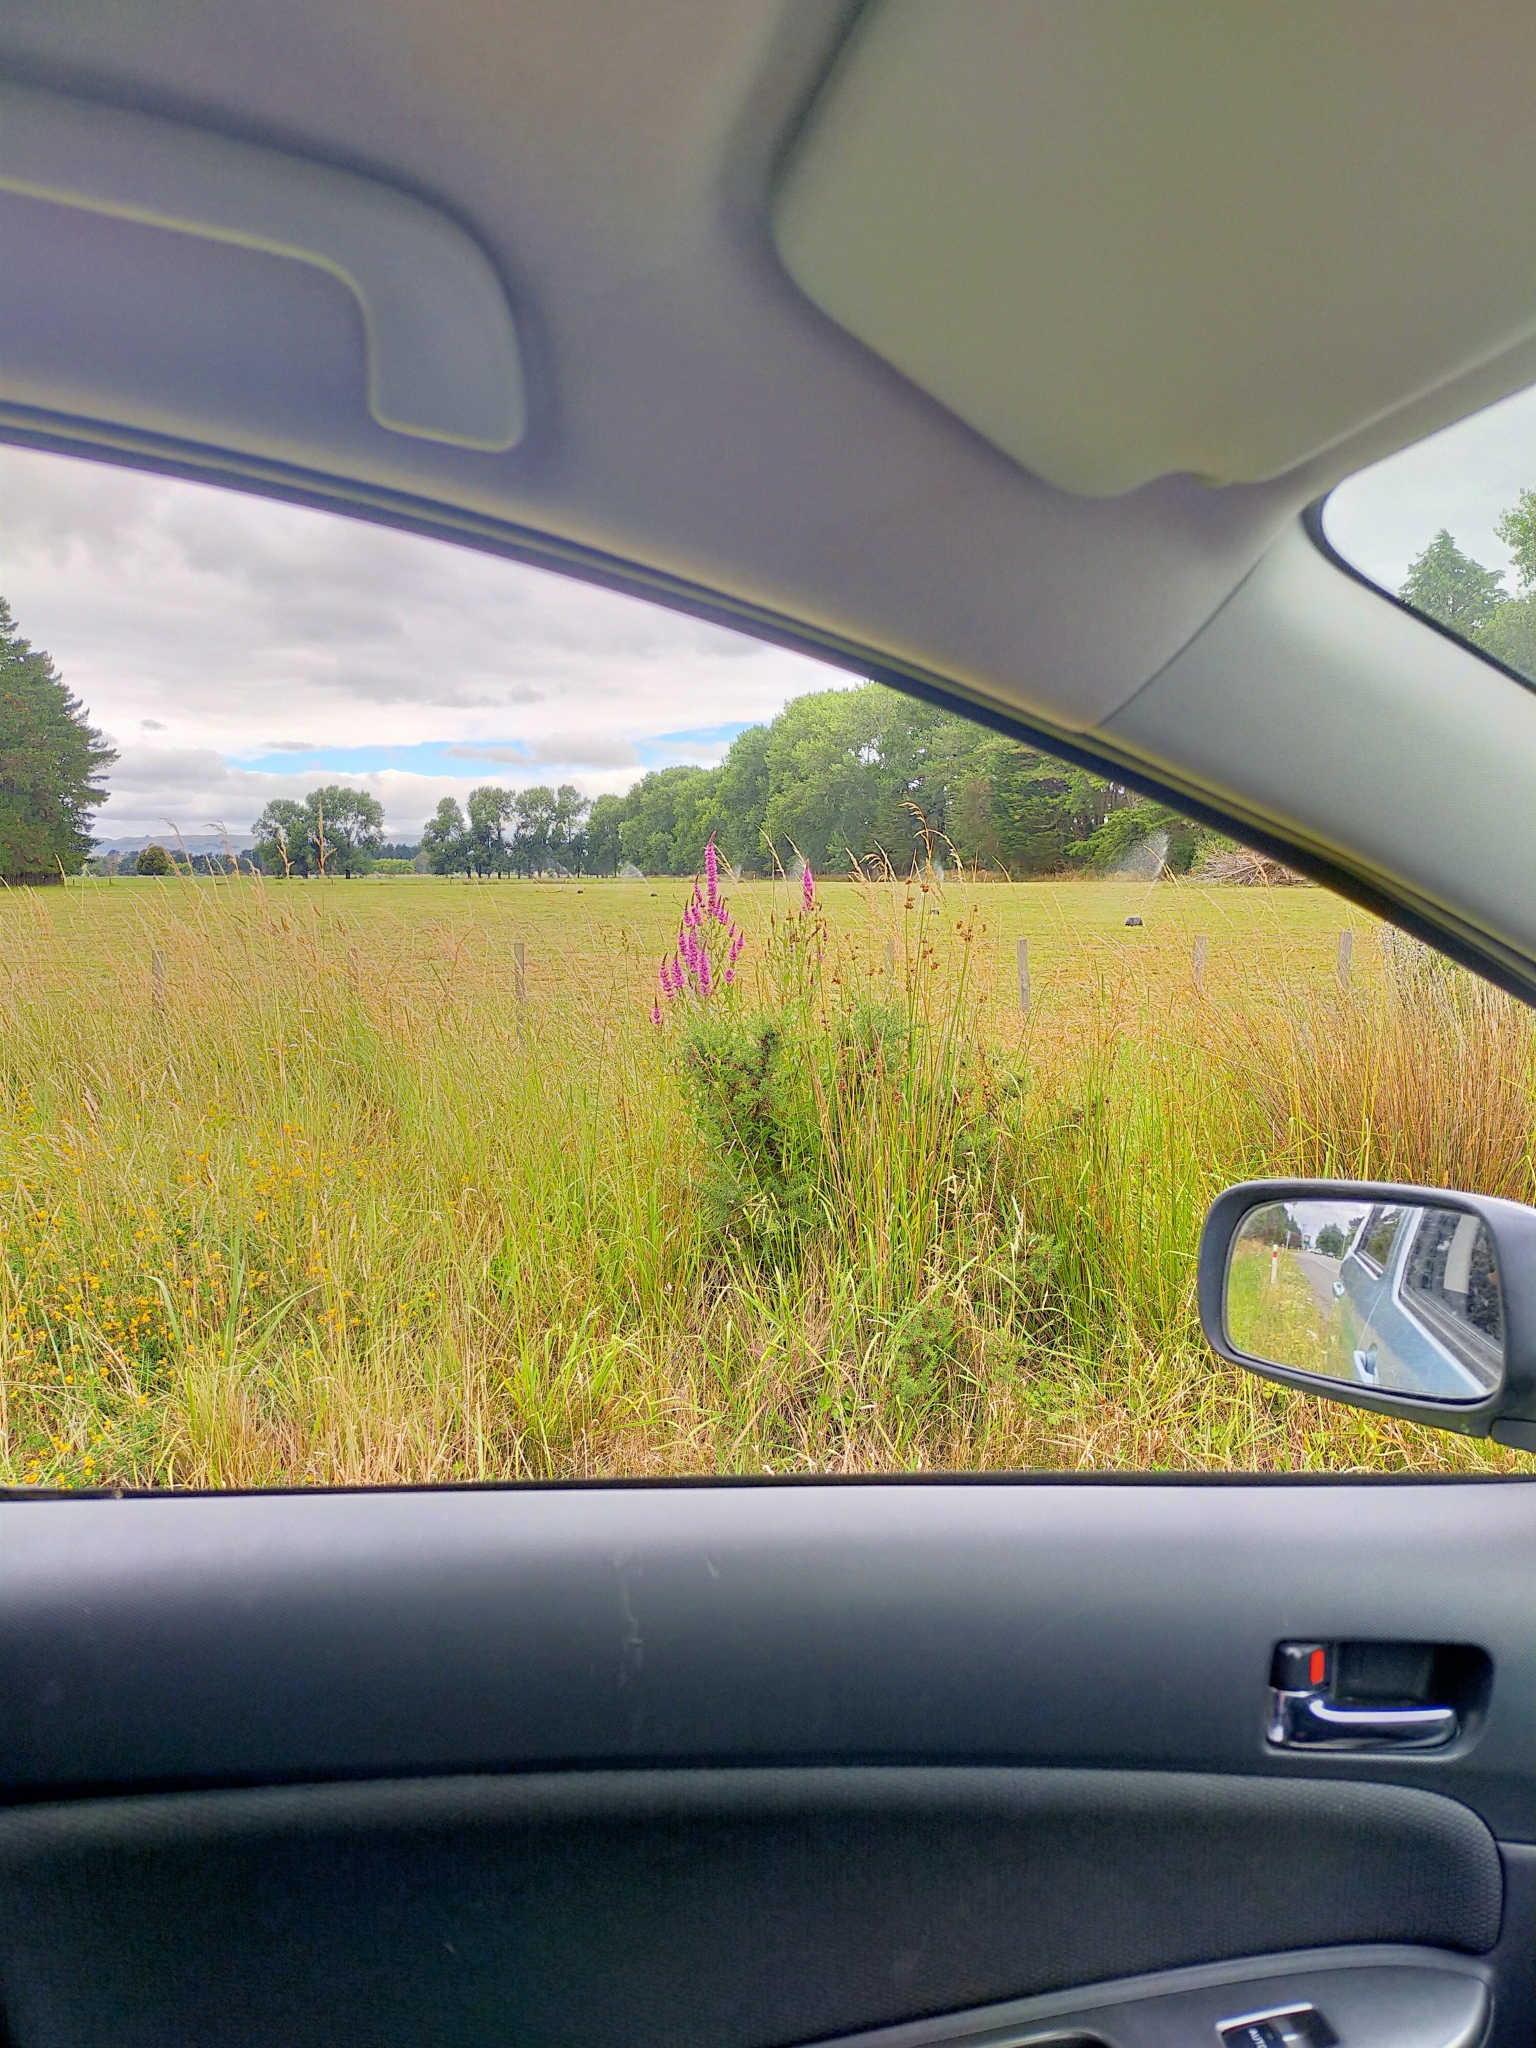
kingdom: Plantae
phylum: Tracheophyta
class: Magnoliopsida
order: Myrtales
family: Lythraceae
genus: Lythrum
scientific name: Lythrum salicaria
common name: Purple loosestrife
